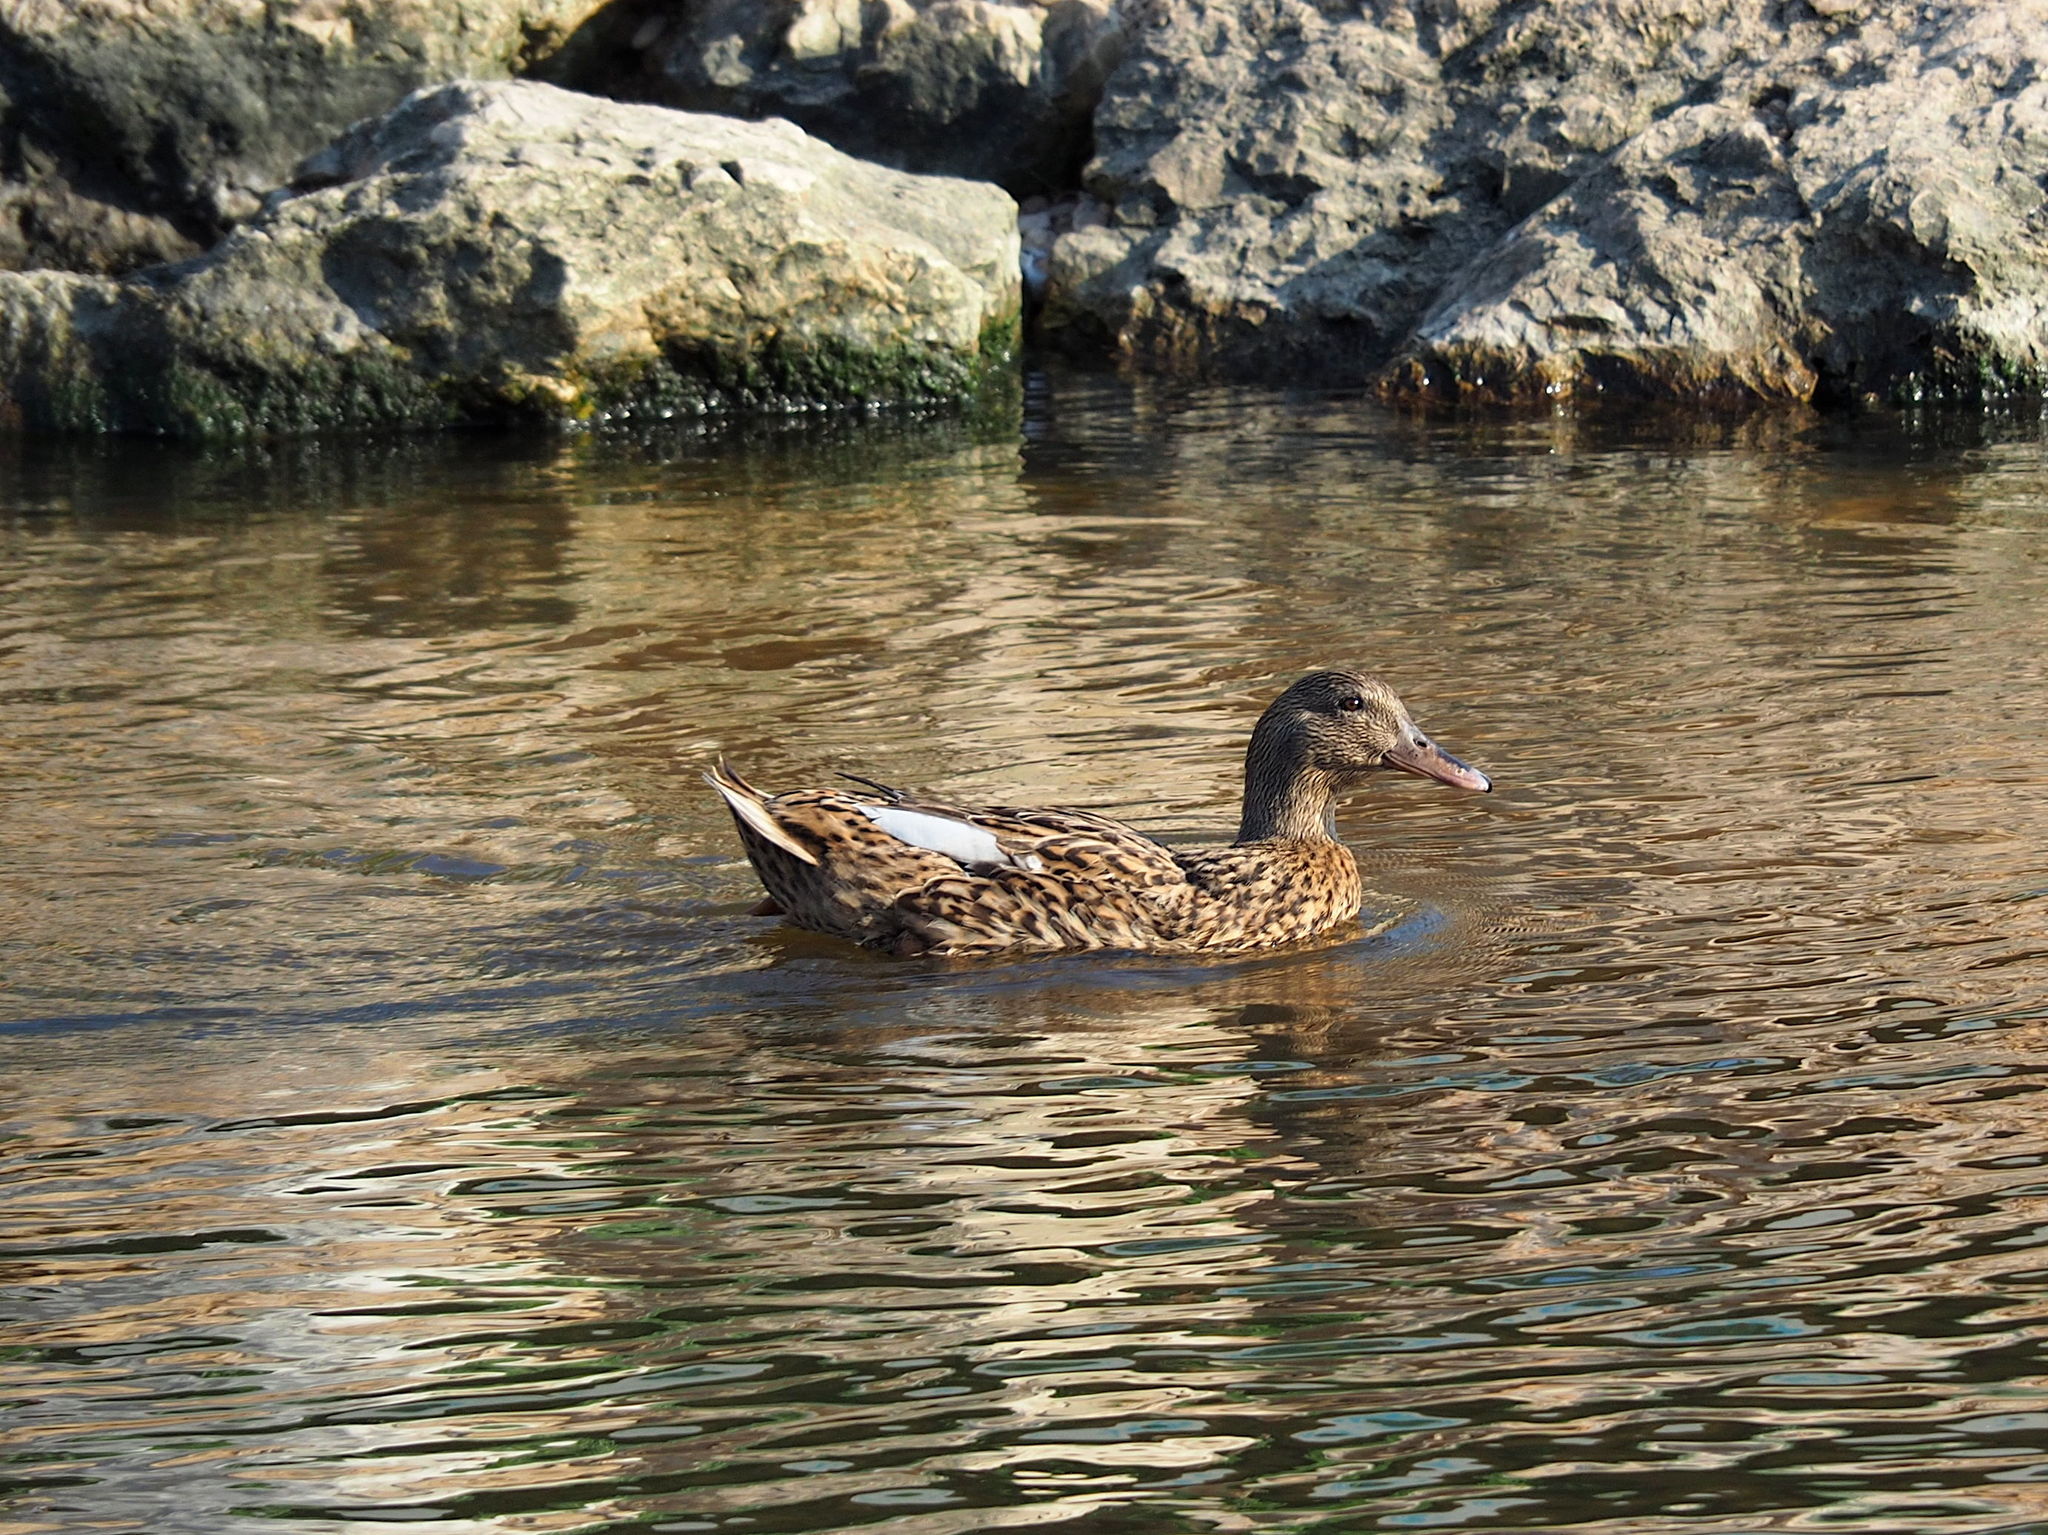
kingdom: Animalia
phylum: Chordata
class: Aves
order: Anseriformes
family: Anatidae
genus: Anas
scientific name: Anas platyrhynchos
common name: Mallard
